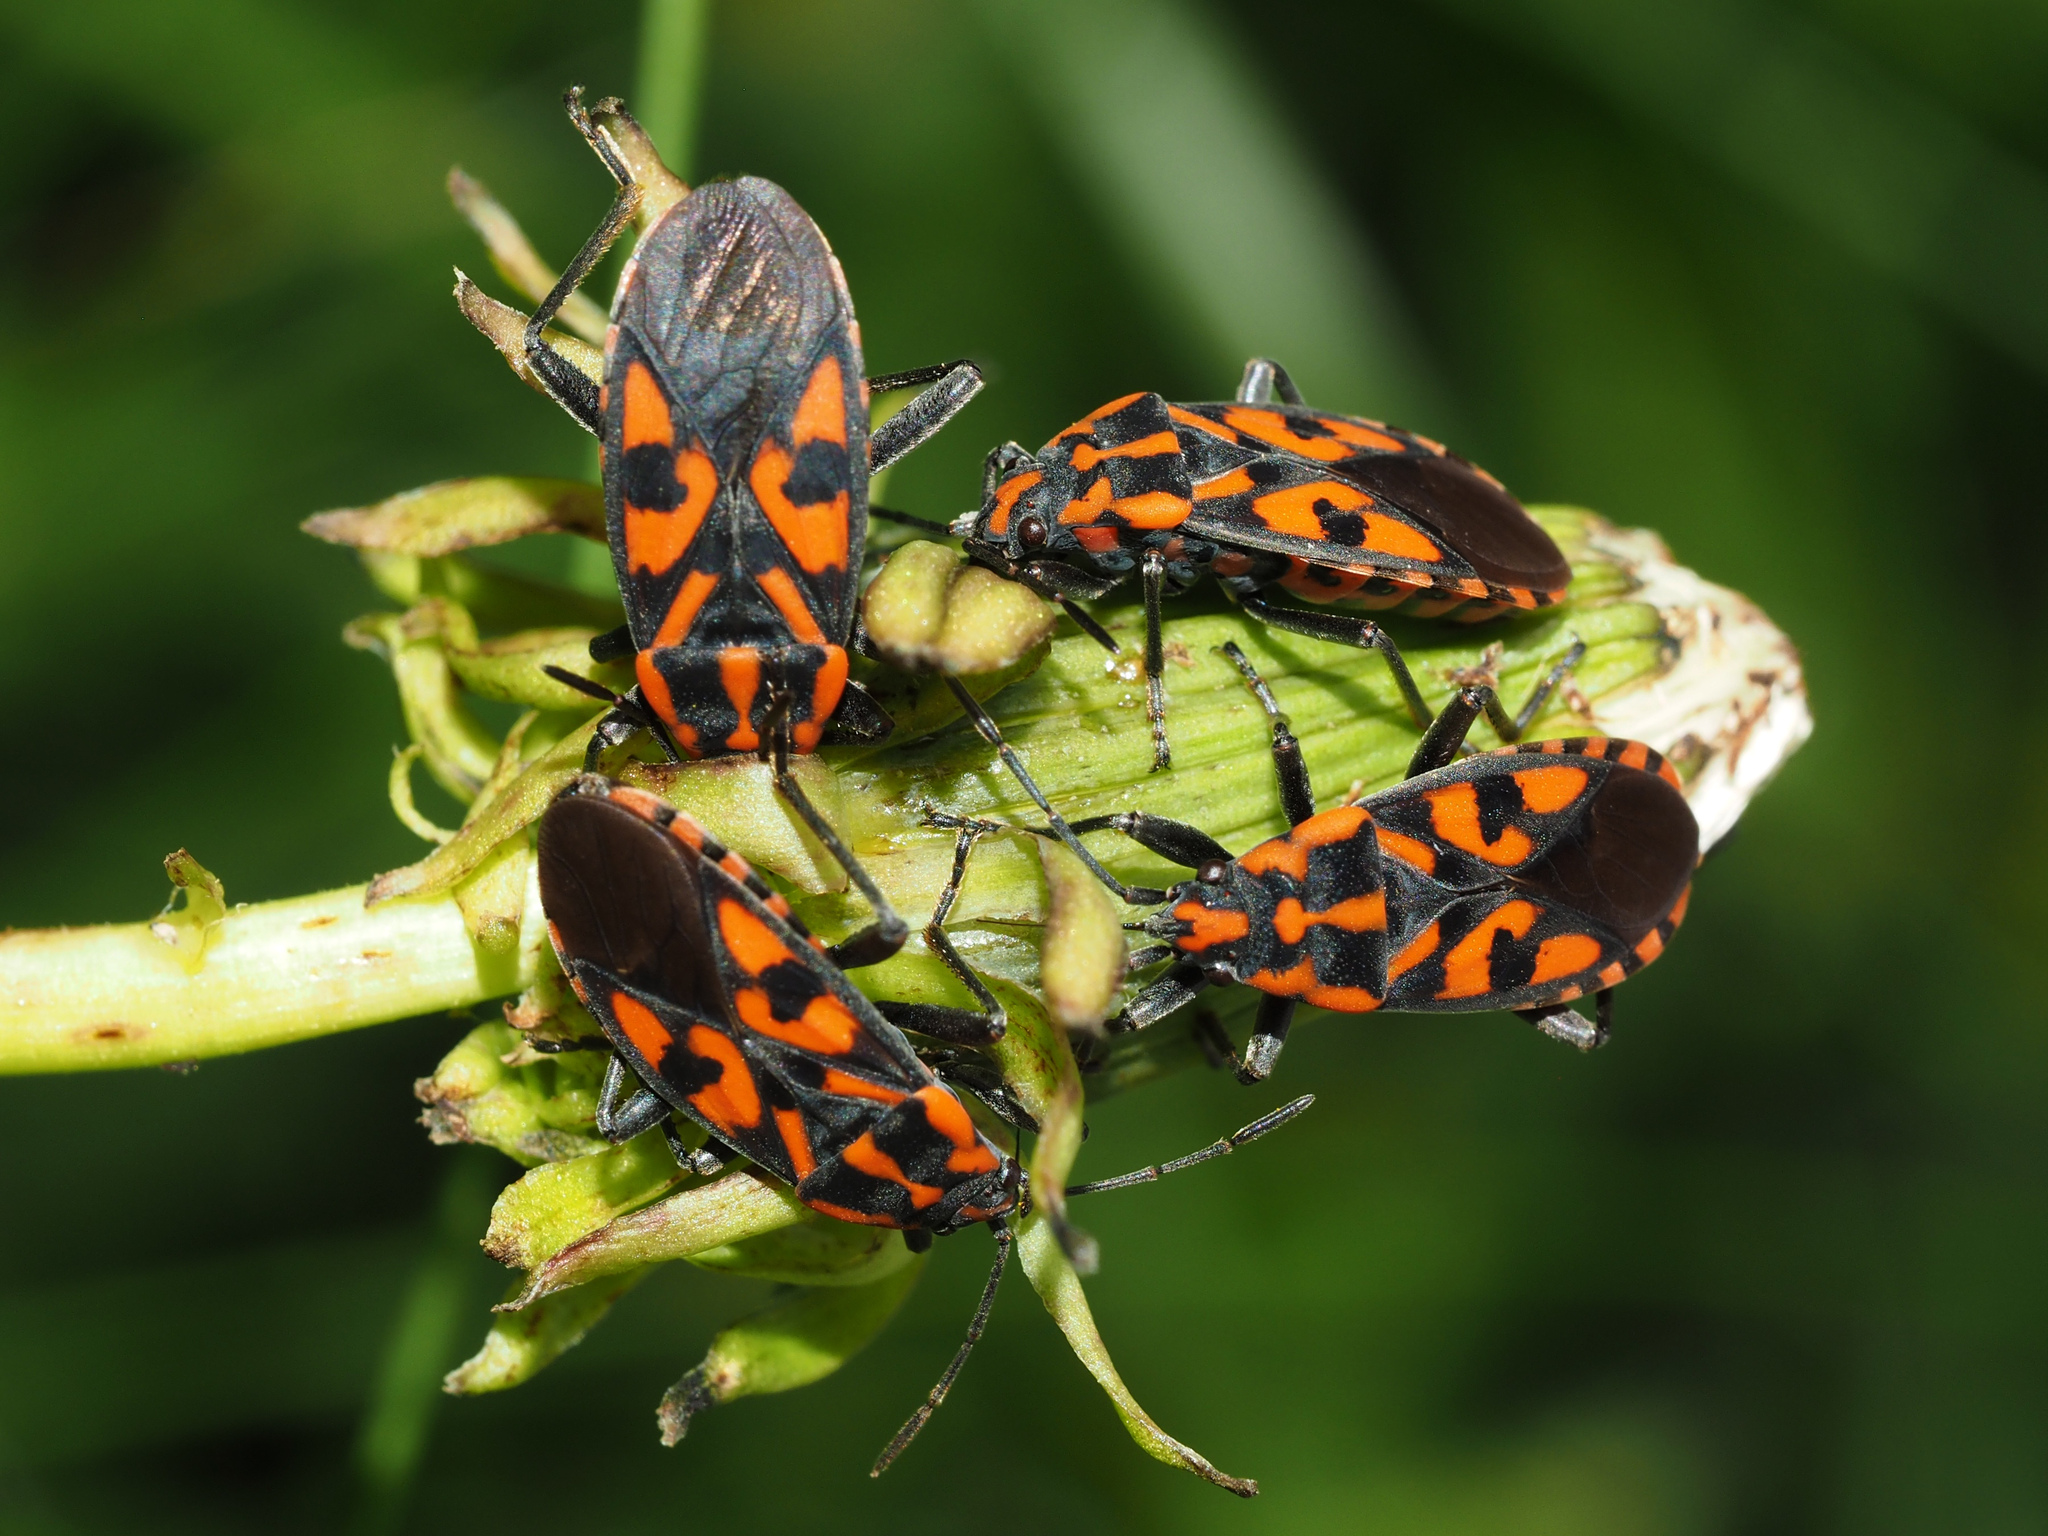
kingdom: Animalia
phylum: Arthropoda
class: Insecta
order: Hemiptera
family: Lygaeidae
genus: Spilostethus
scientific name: Spilostethus saxatilis
